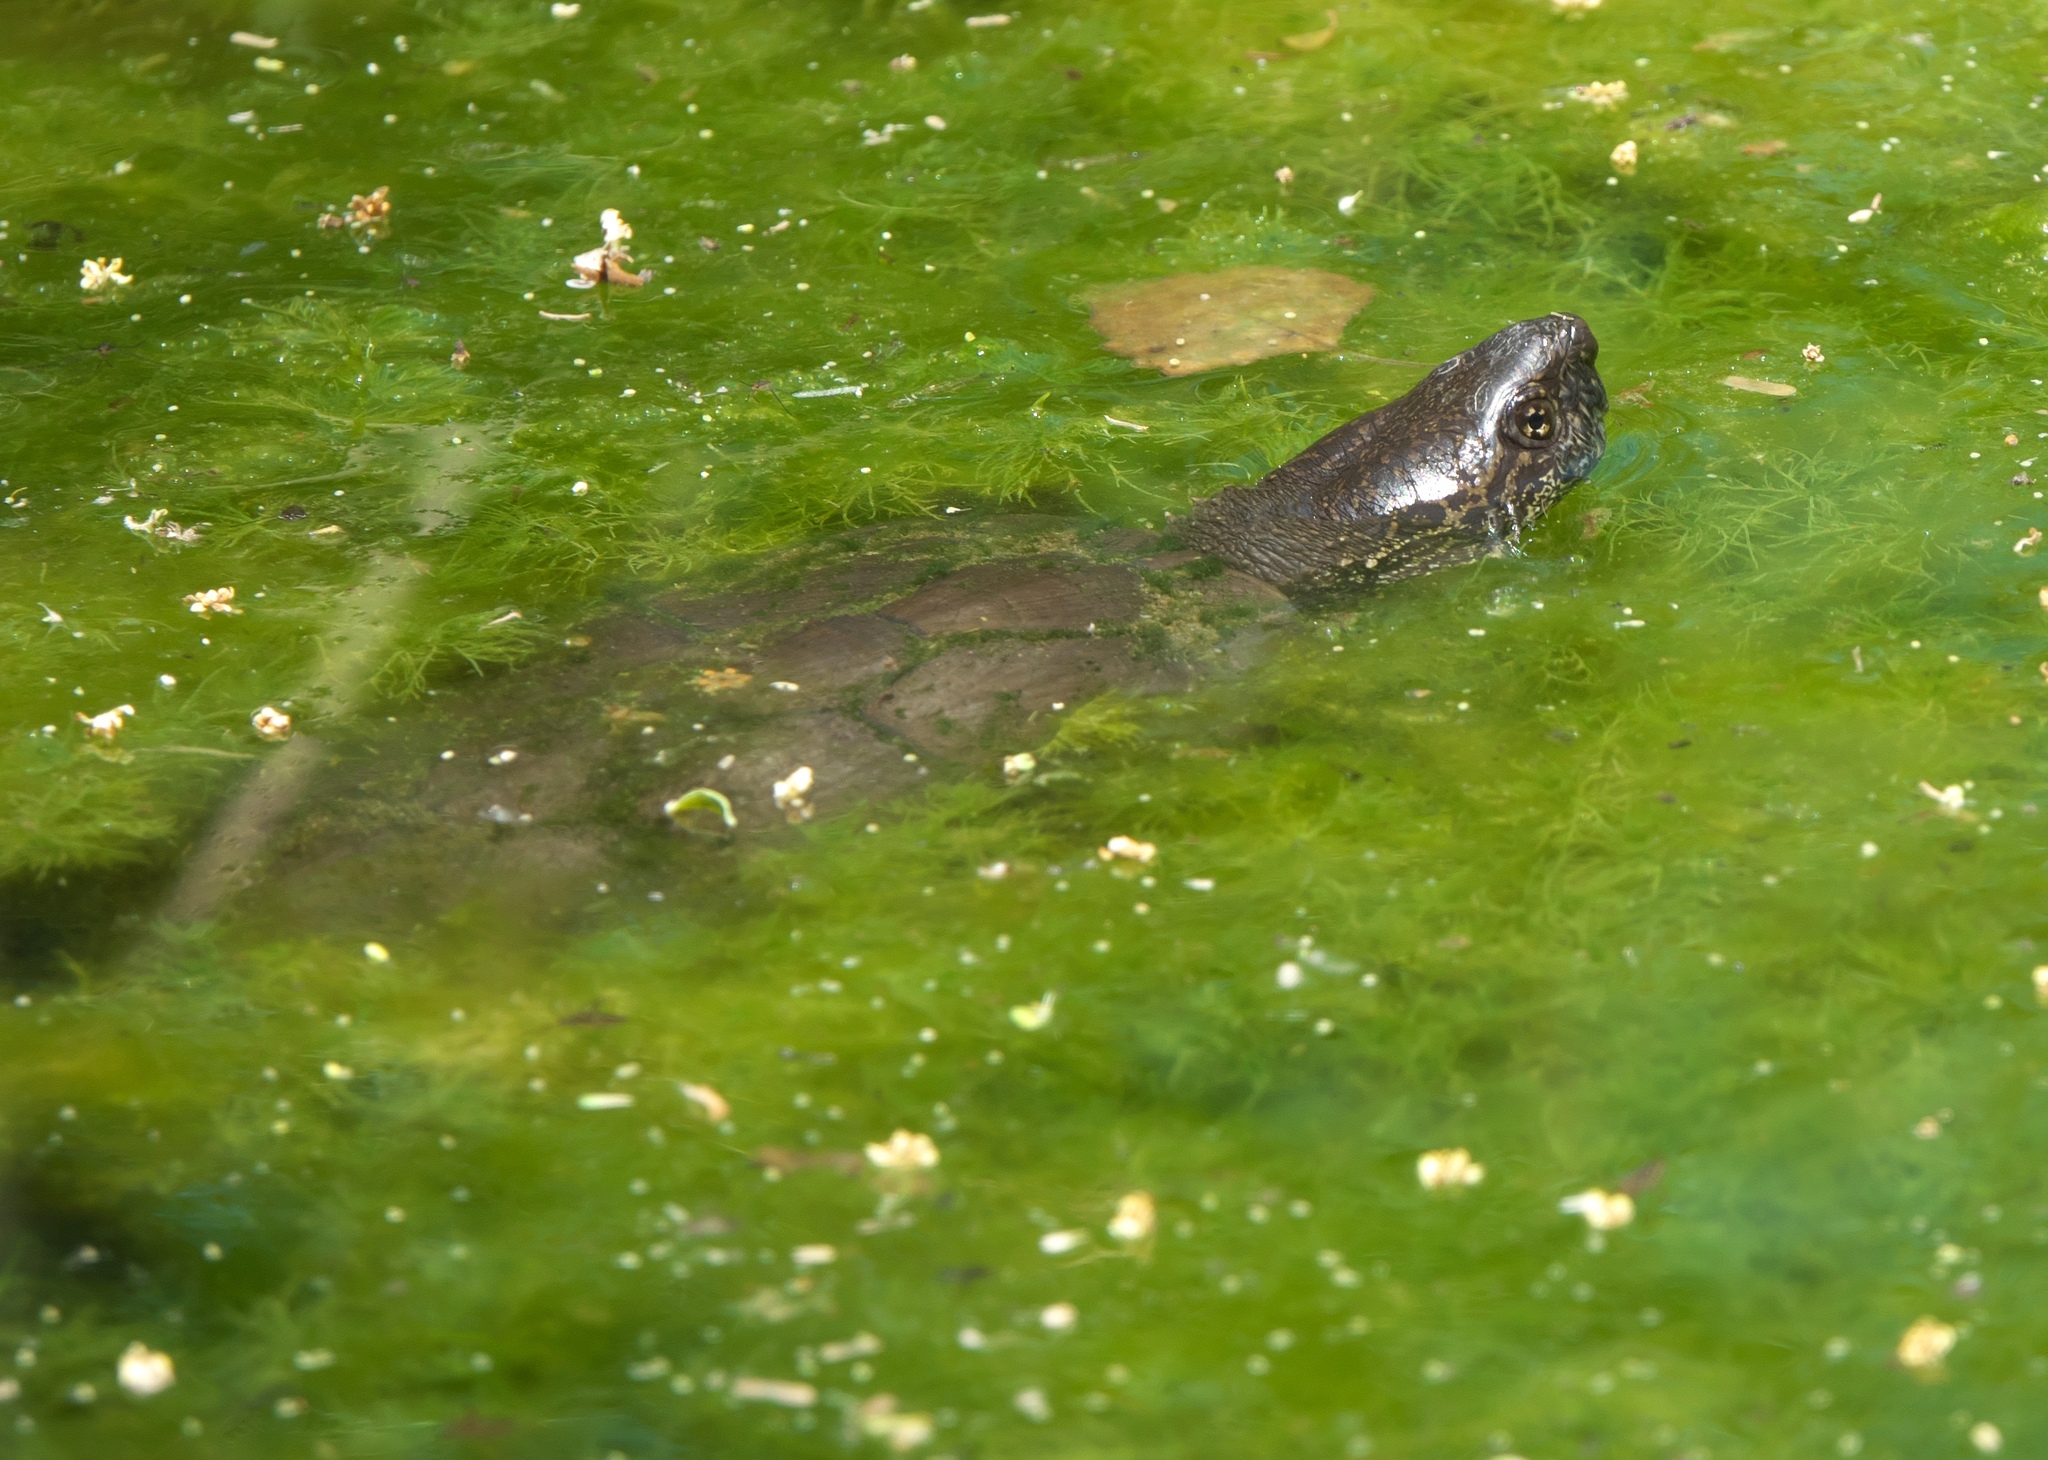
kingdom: Animalia
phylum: Chordata
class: Testudines
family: Kinosternidae
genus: Kinosternon
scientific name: Kinosternon sonoriense
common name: Sonora mud turtle
